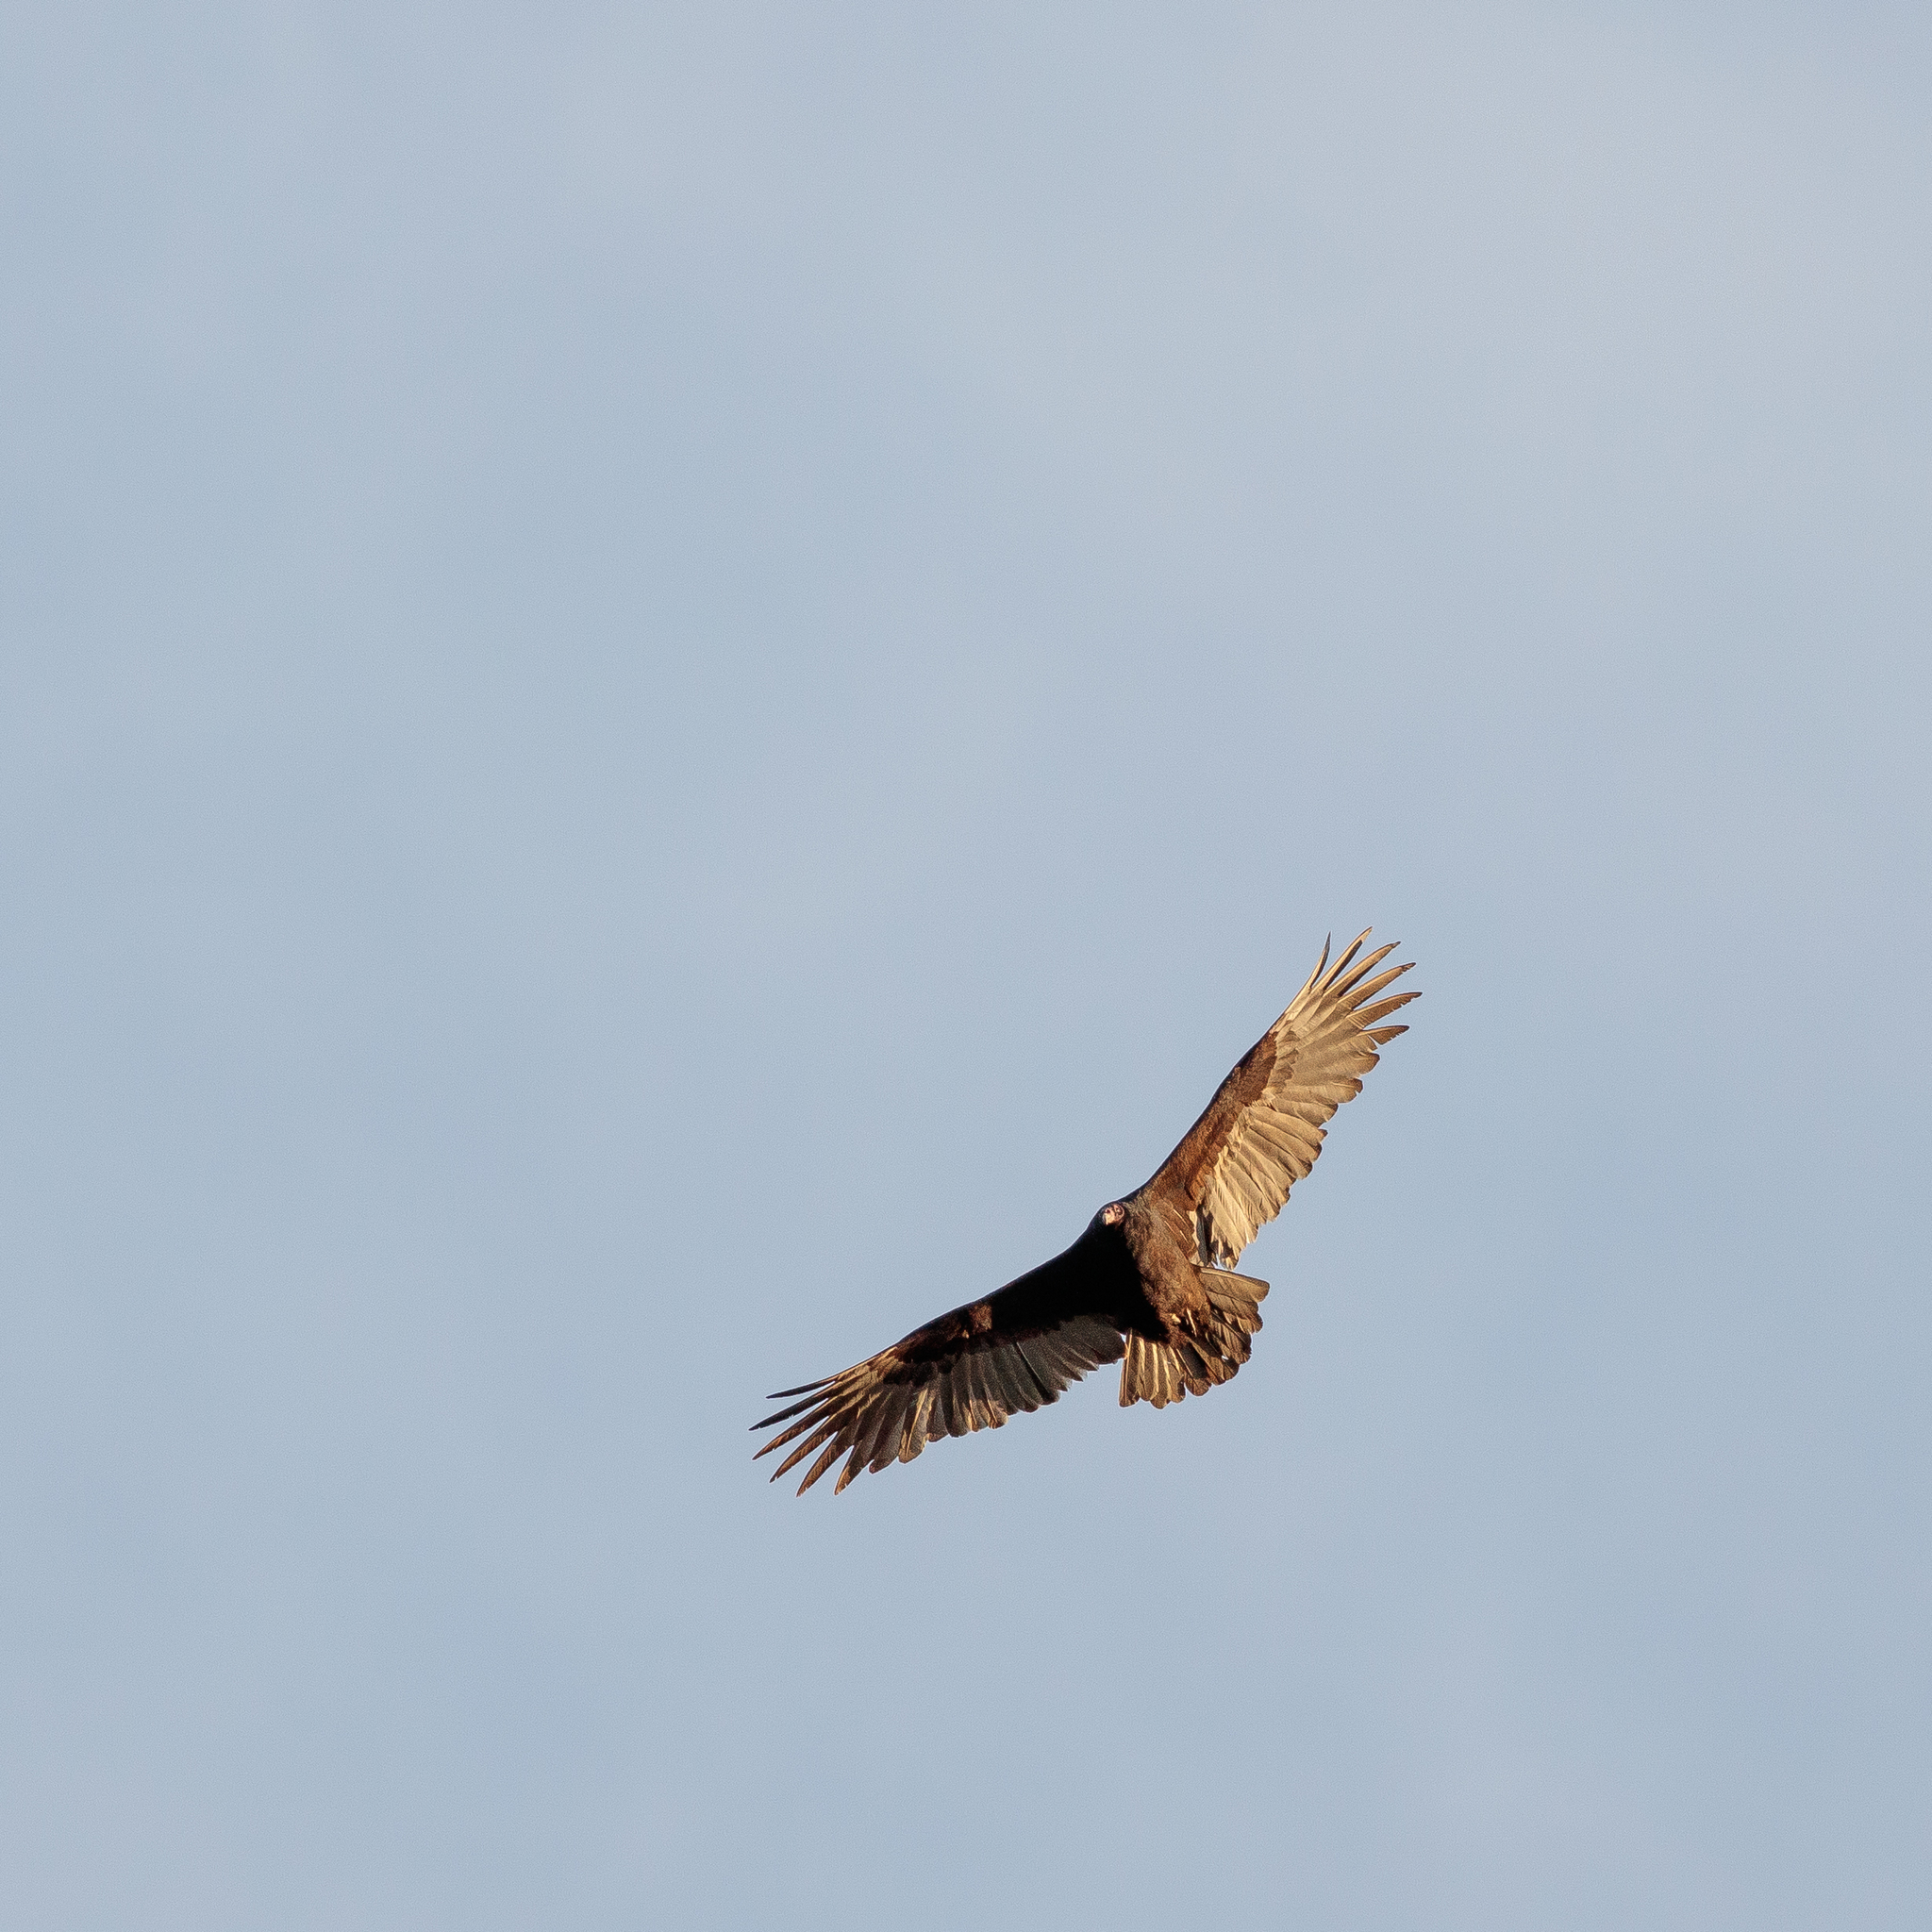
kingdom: Animalia
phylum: Chordata
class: Aves
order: Accipitriformes
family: Cathartidae
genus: Cathartes
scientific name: Cathartes aura
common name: Turkey vulture
